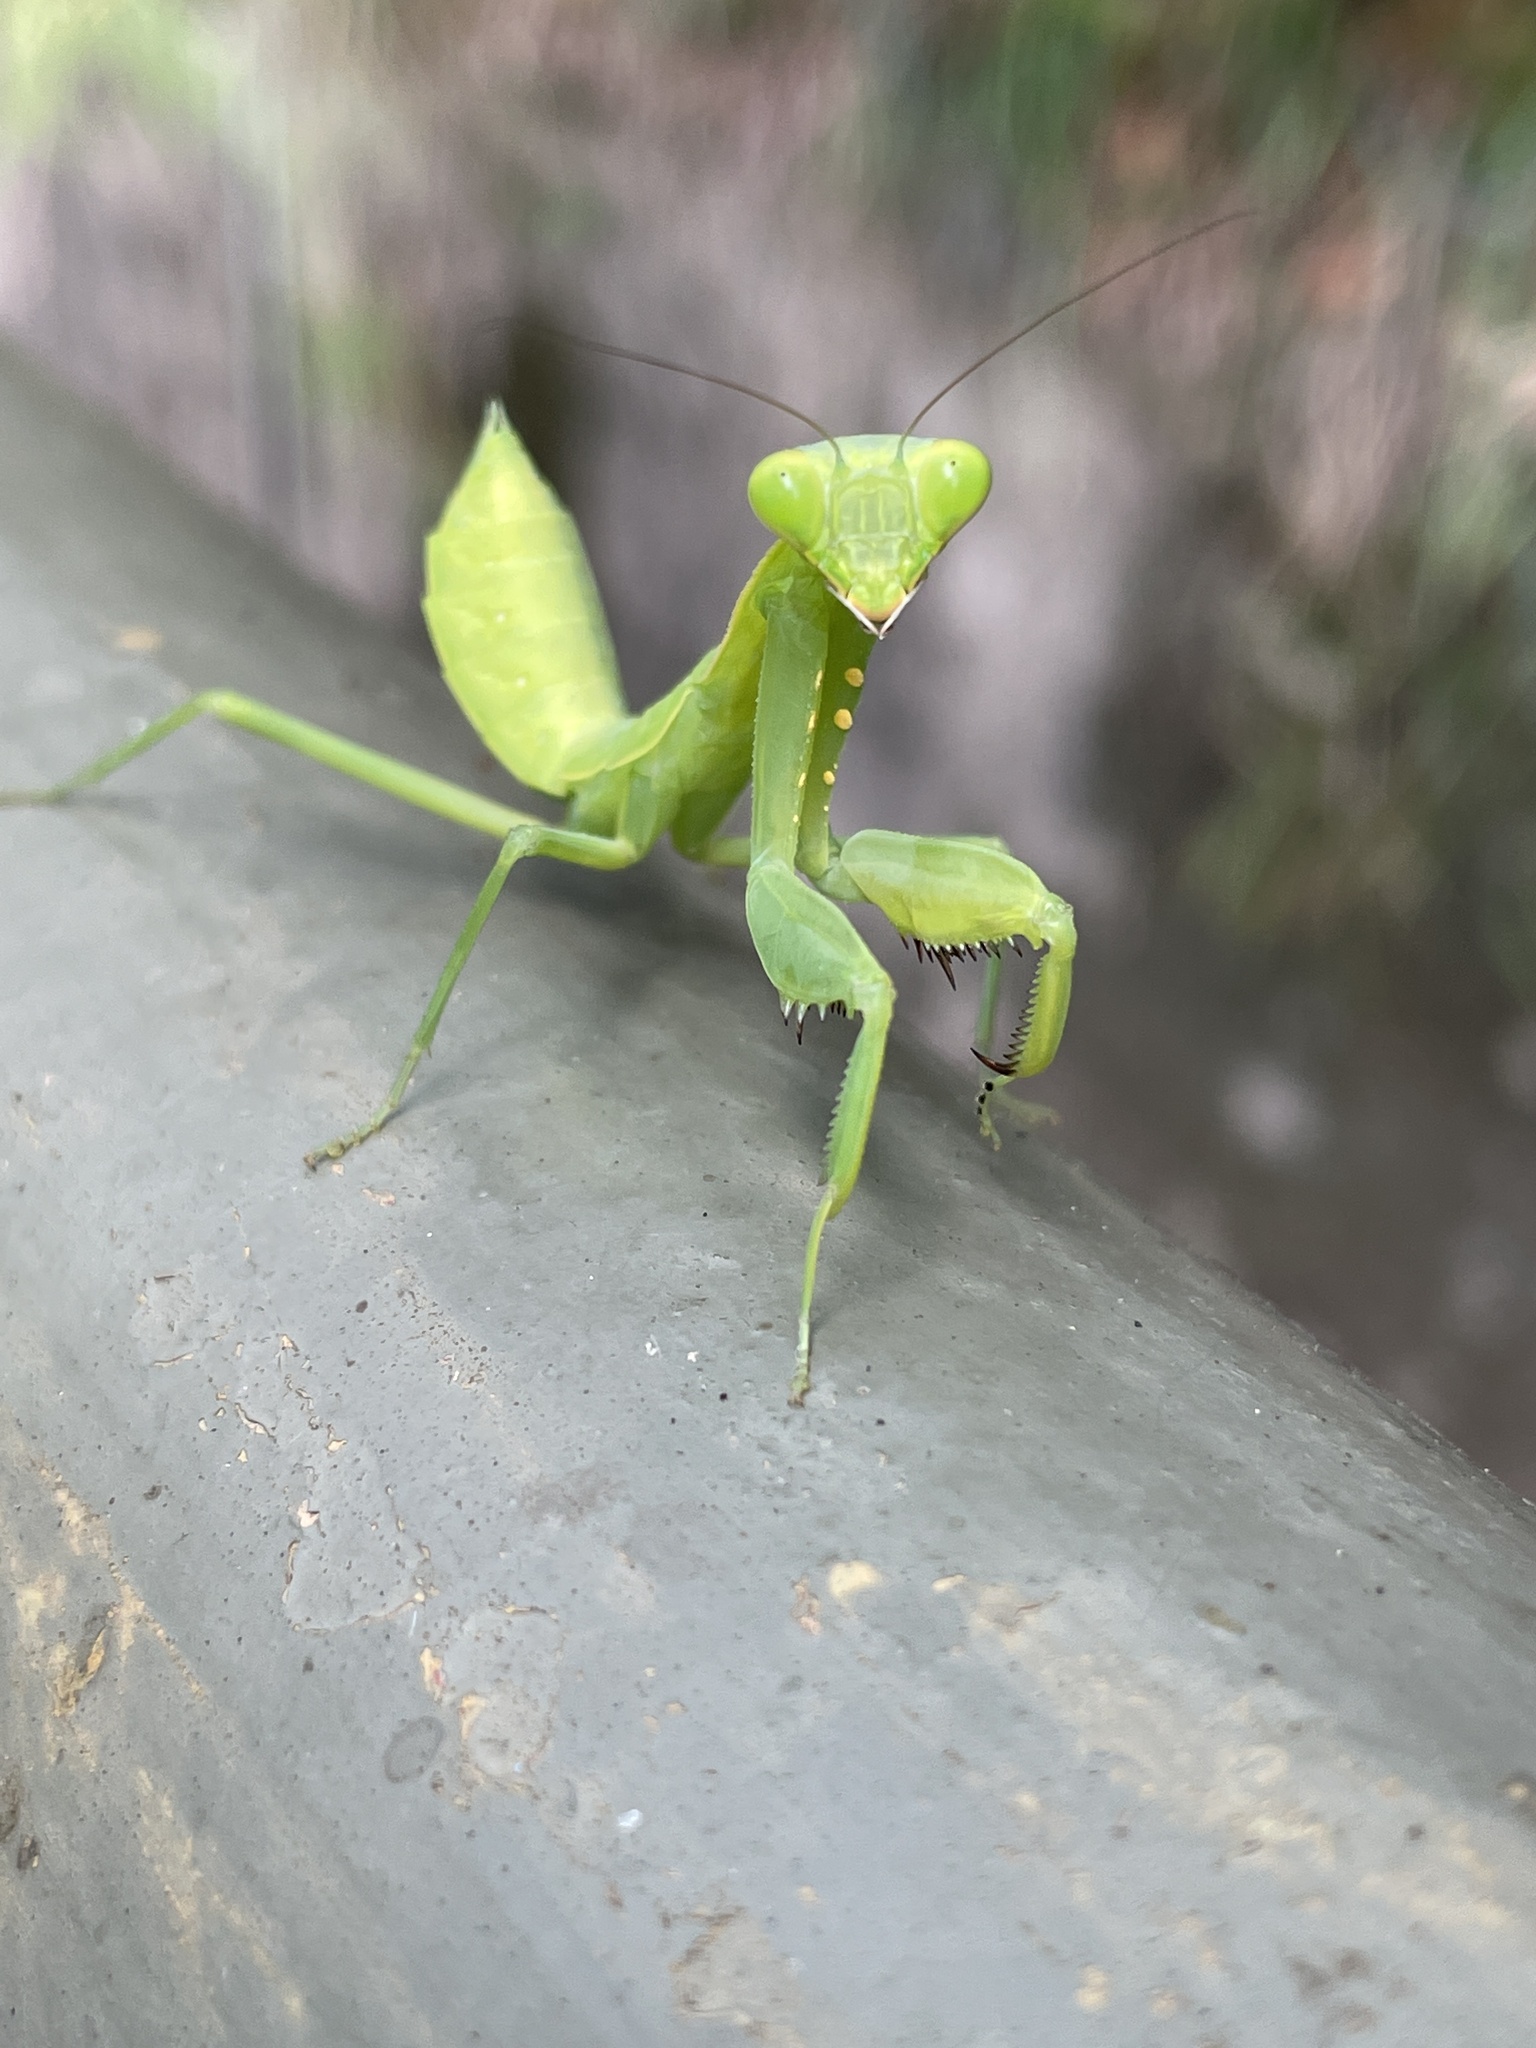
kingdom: Animalia
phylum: Arthropoda
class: Insecta
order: Mantodea
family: Mantidae
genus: Hierodula
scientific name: Hierodula patellifera
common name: Asian mantis
